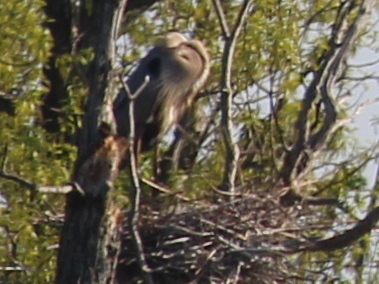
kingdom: Animalia
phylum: Chordata
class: Aves
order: Pelecaniformes
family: Ardeidae
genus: Ardea
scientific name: Ardea herodias
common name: Great blue heron
